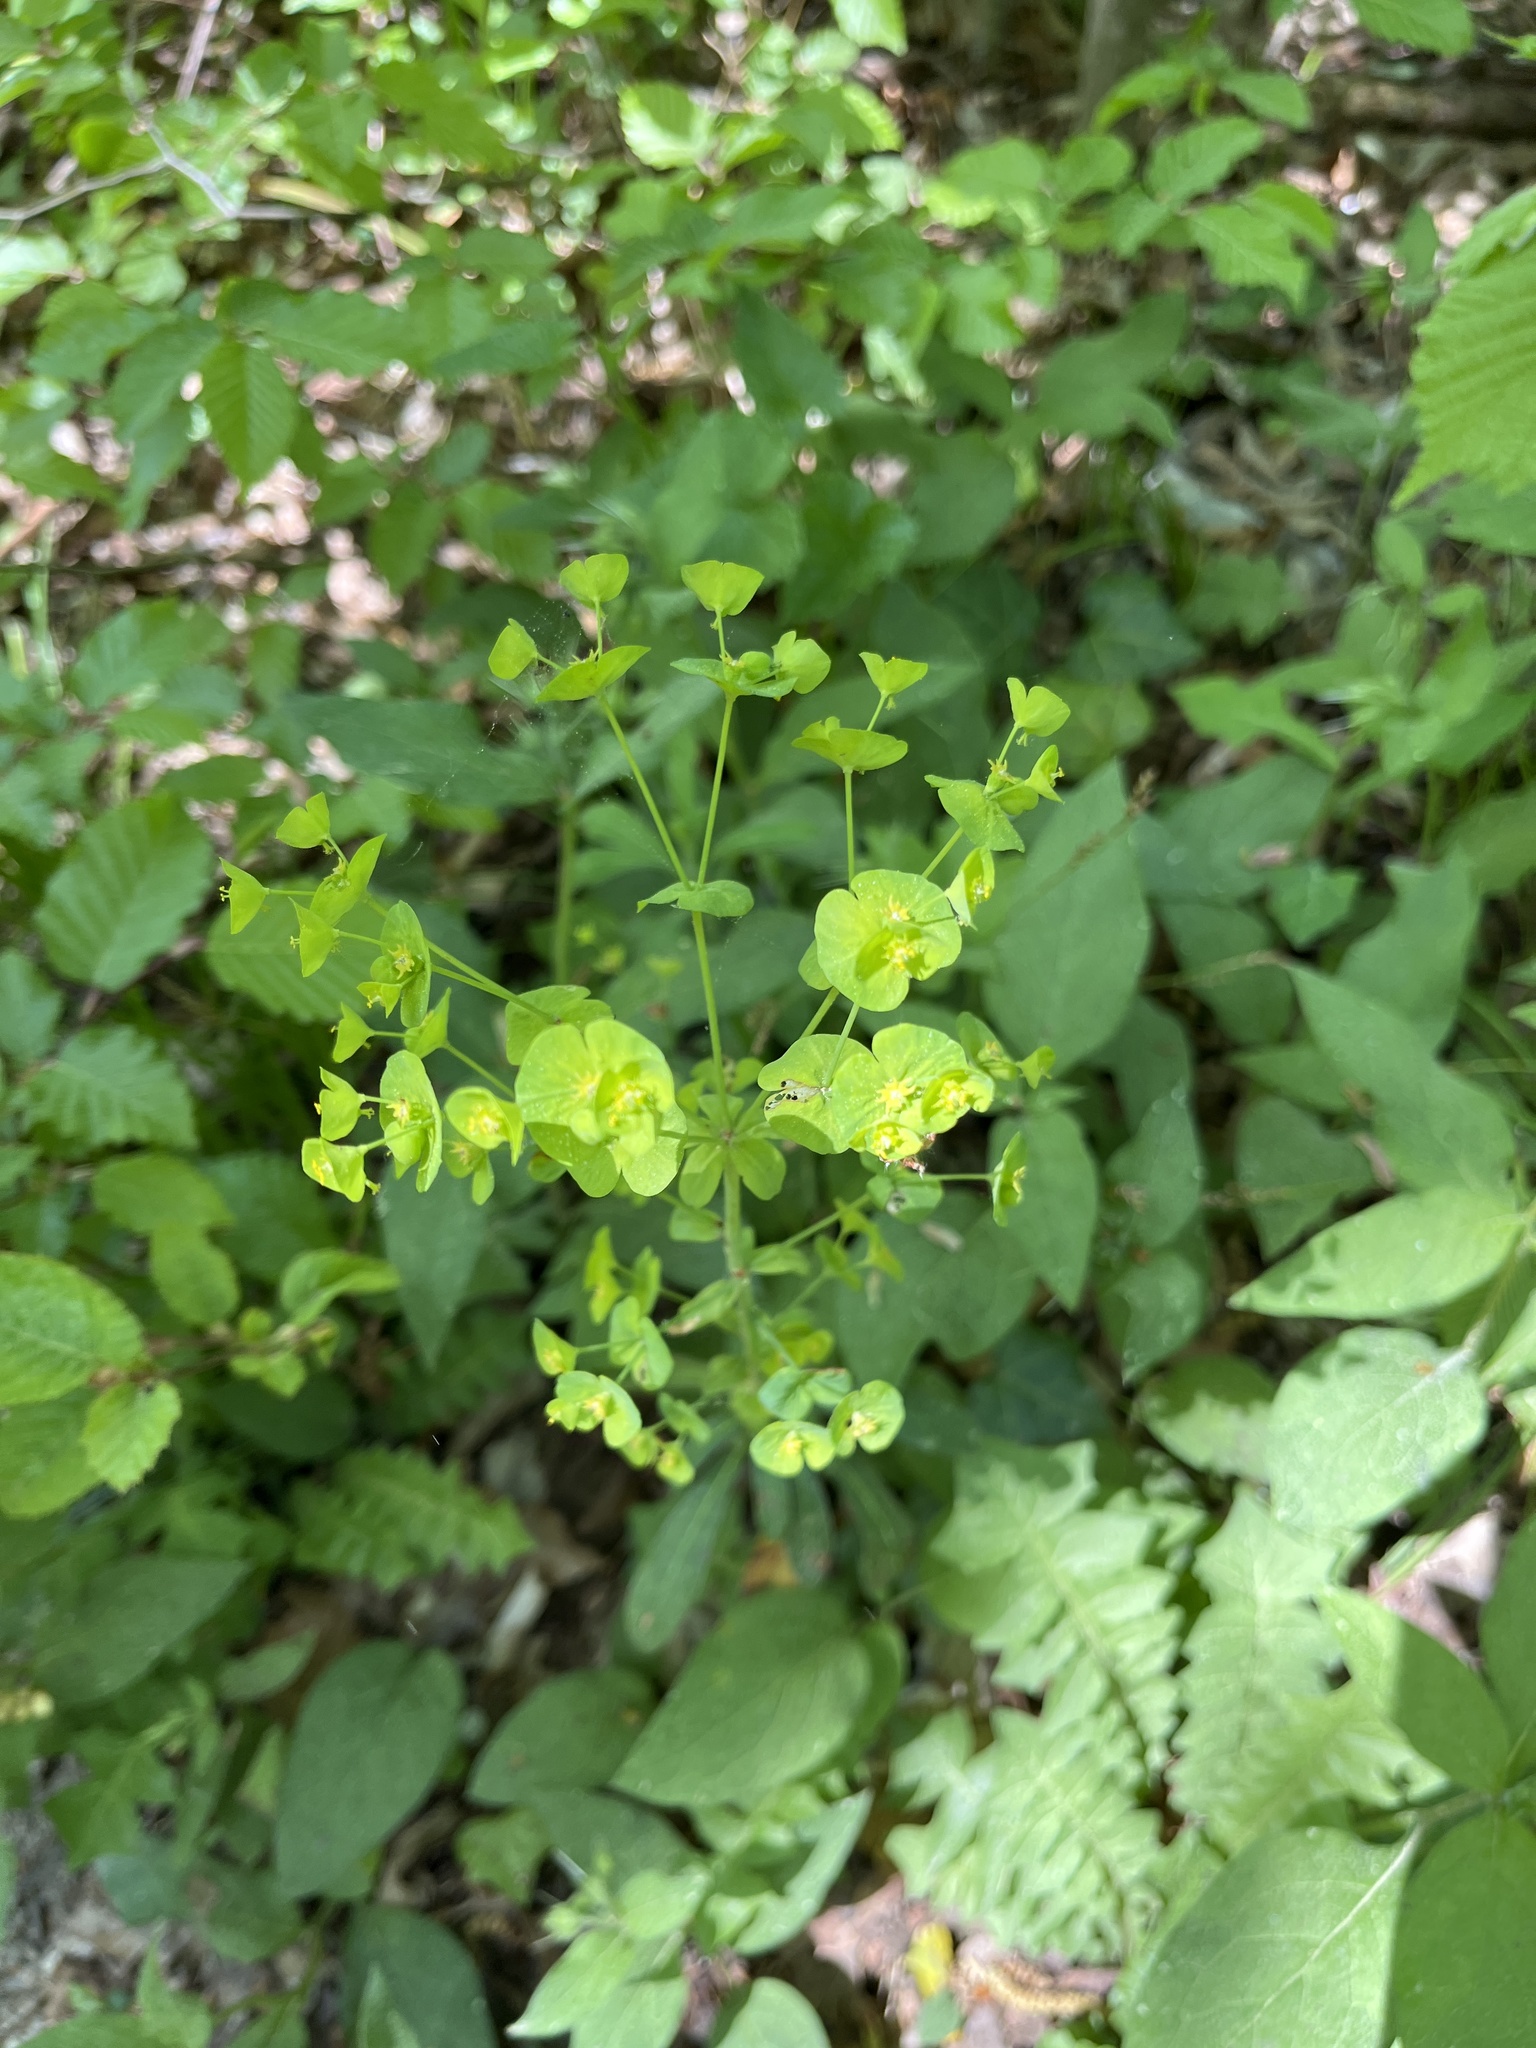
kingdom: Plantae
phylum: Tracheophyta
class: Magnoliopsida
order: Malpighiales
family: Euphorbiaceae
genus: Euphorbia
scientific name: Euphorbia amygdaloides
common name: Wood spurge
